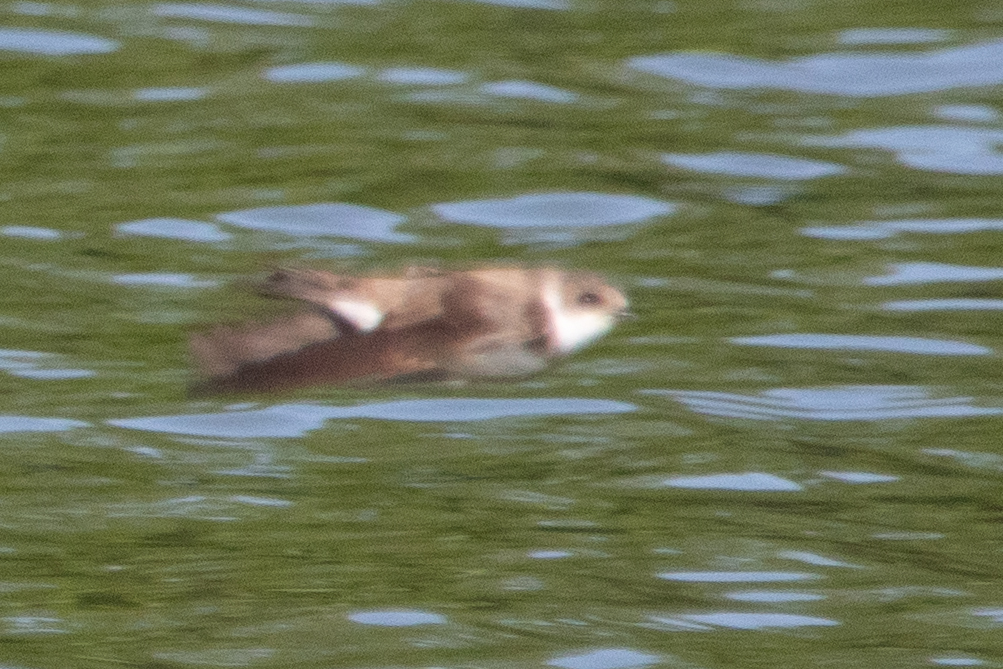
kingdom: Animalia
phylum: Chordata
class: Aves
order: Passeriformes
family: Hirundinidae
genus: Riparia
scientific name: Riparia riparia
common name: Sand martin
